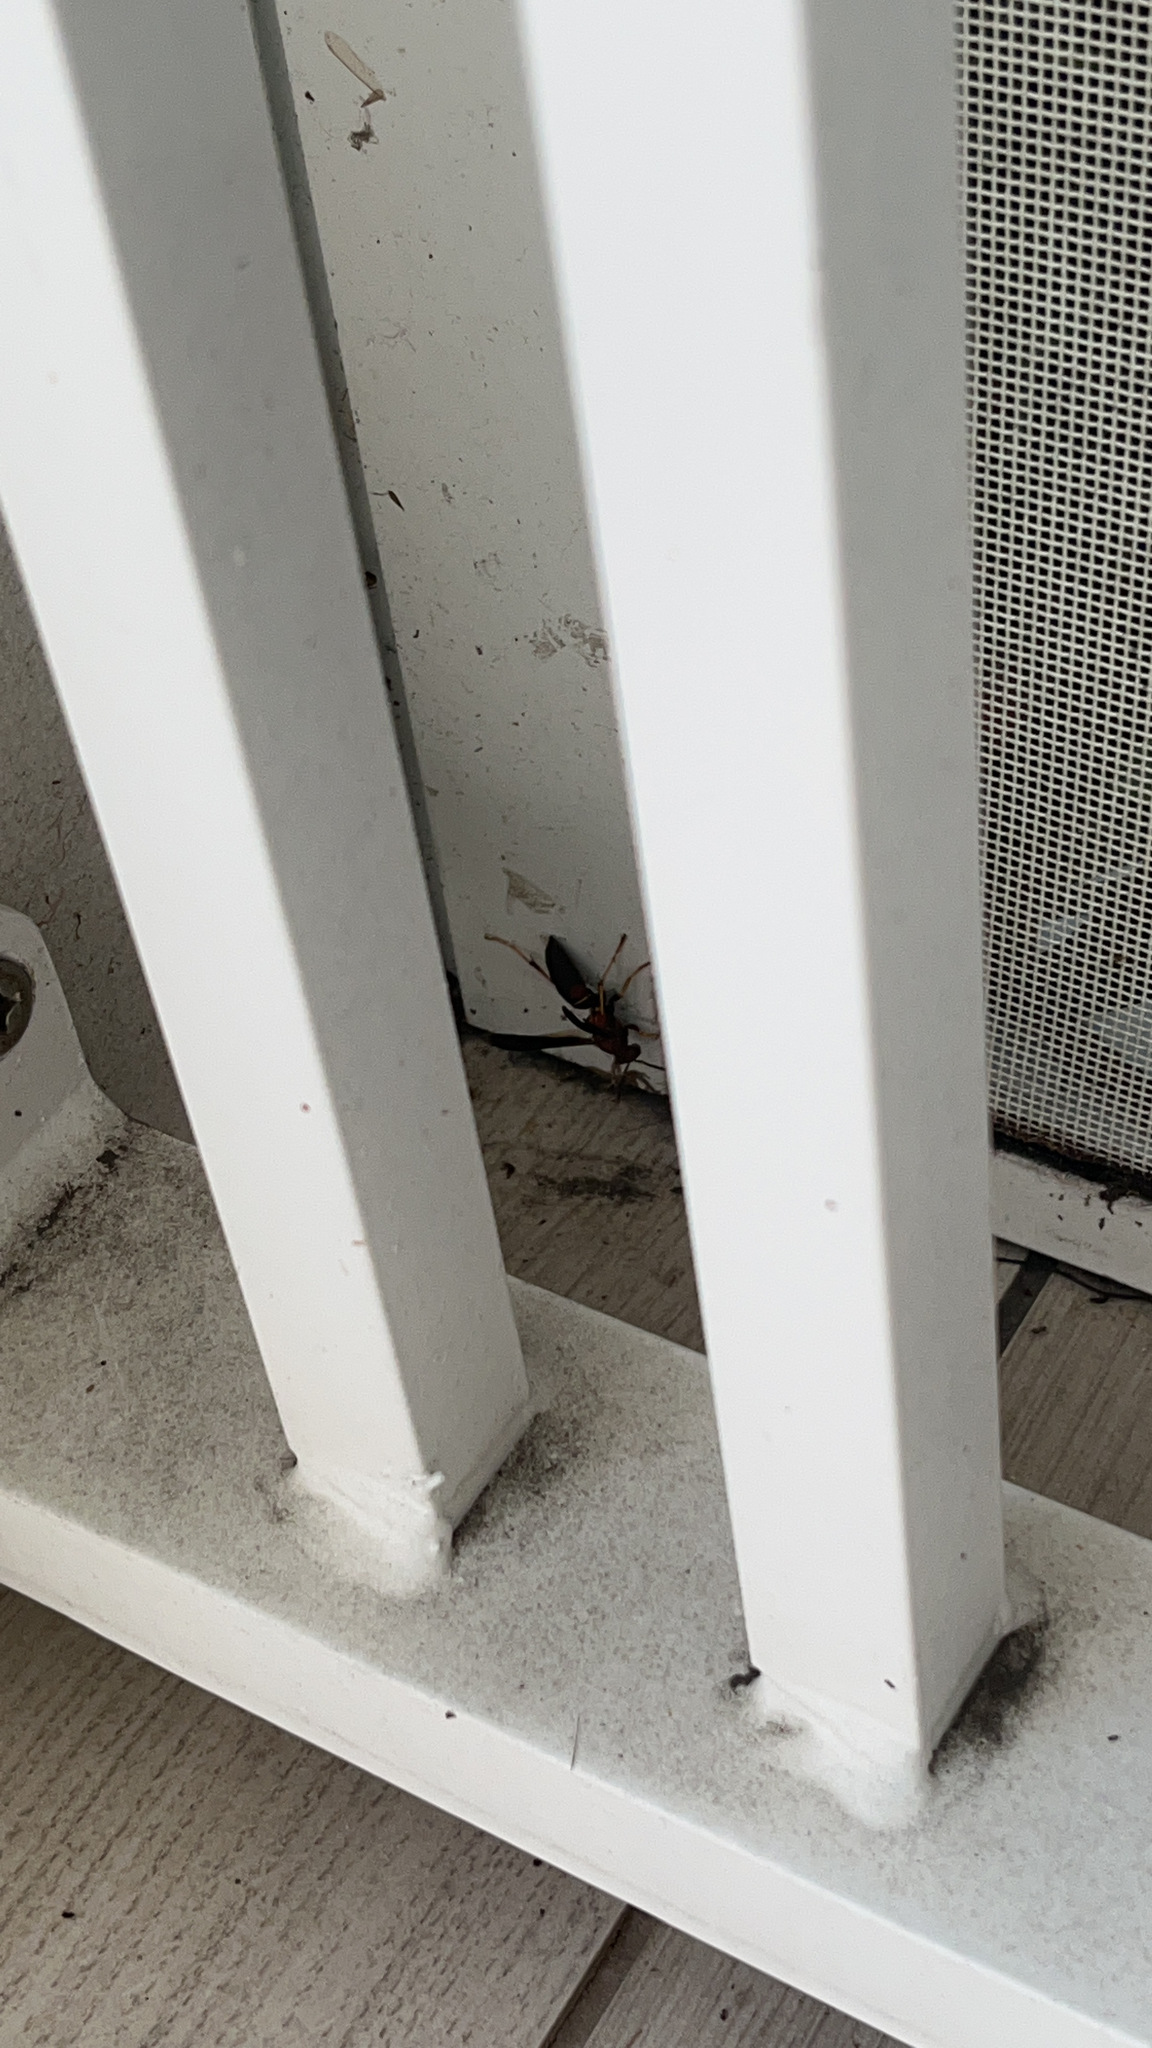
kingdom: Animalia
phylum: Arthropoda
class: Insecta
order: Hymenoptera
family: Eumenidae
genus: Polistes
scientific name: Polistes fuscatus
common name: Dark paper wasp
